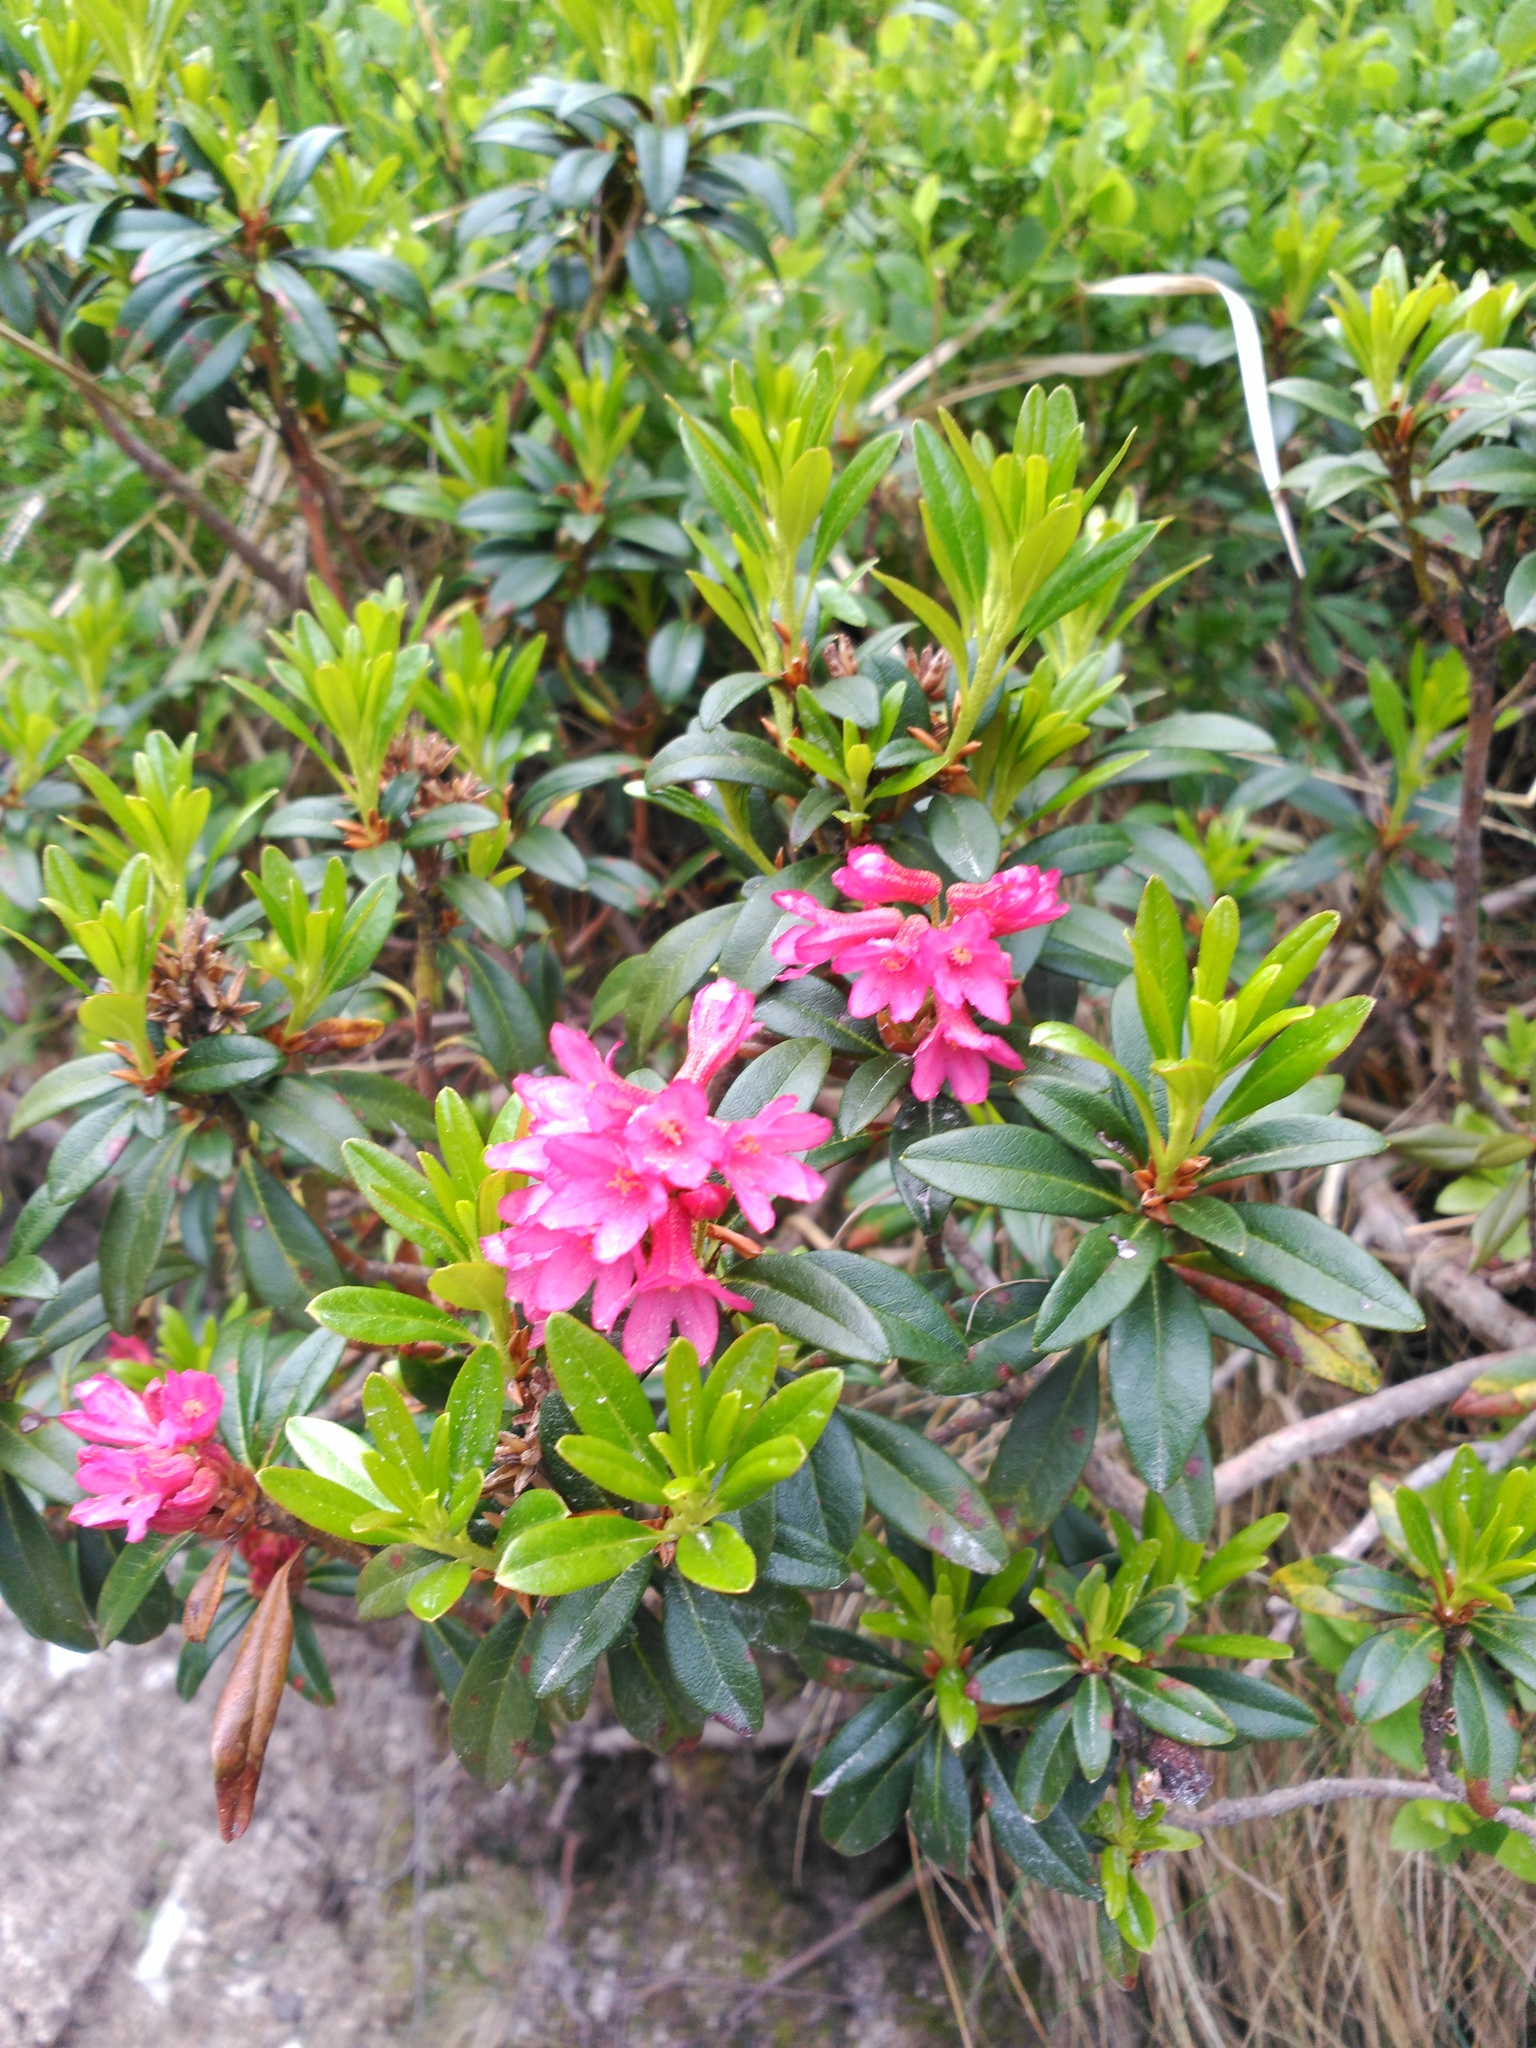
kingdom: Plantae
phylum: Tracheophyta
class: Magnoliopsida
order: Ericales
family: Ericaceae
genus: Rhododendron
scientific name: Rhododendron ferrugineum
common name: Alpenrose
